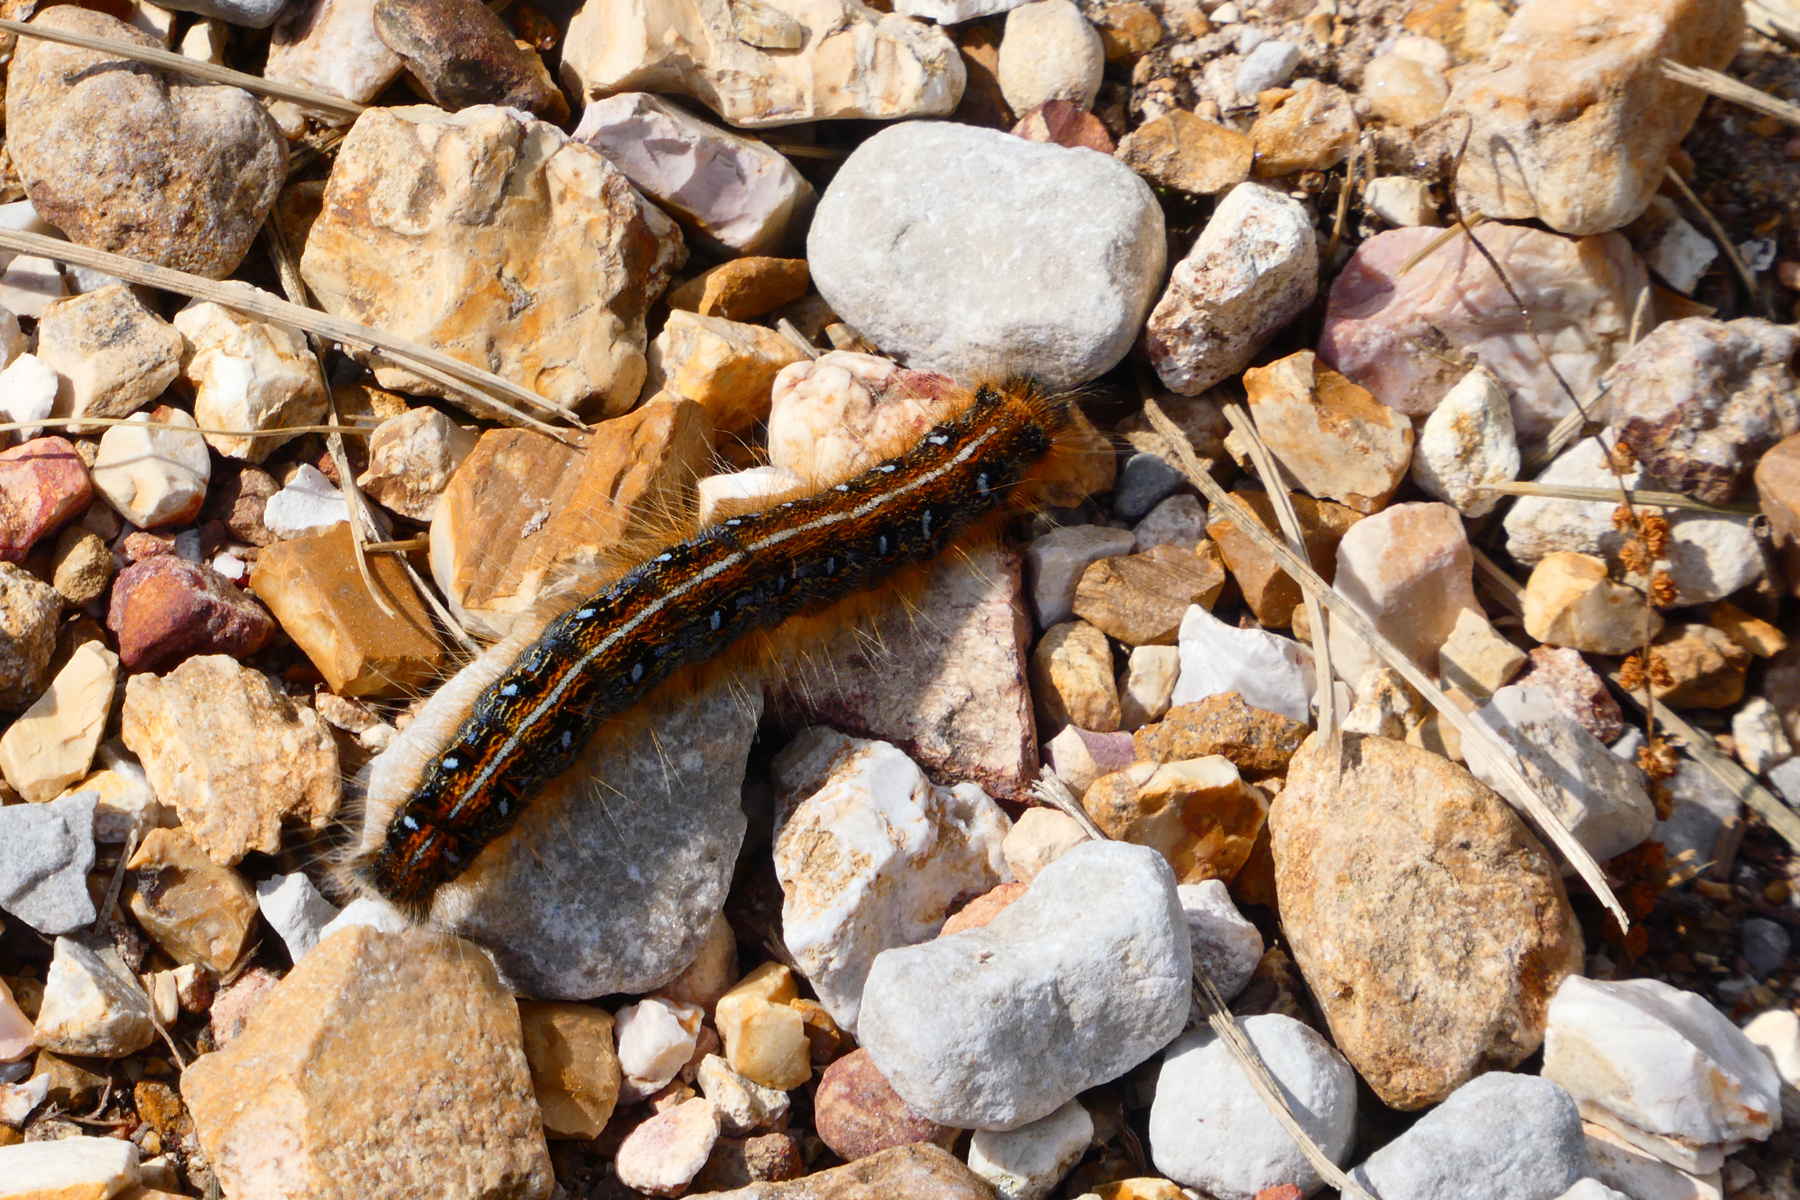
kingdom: Animalia
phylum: Arthropoda
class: Insecta
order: Lepidoptera
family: Lasiocampidae
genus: Malacosoma
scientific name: Malacosoma americana
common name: Eastern tent caterpillar moth
